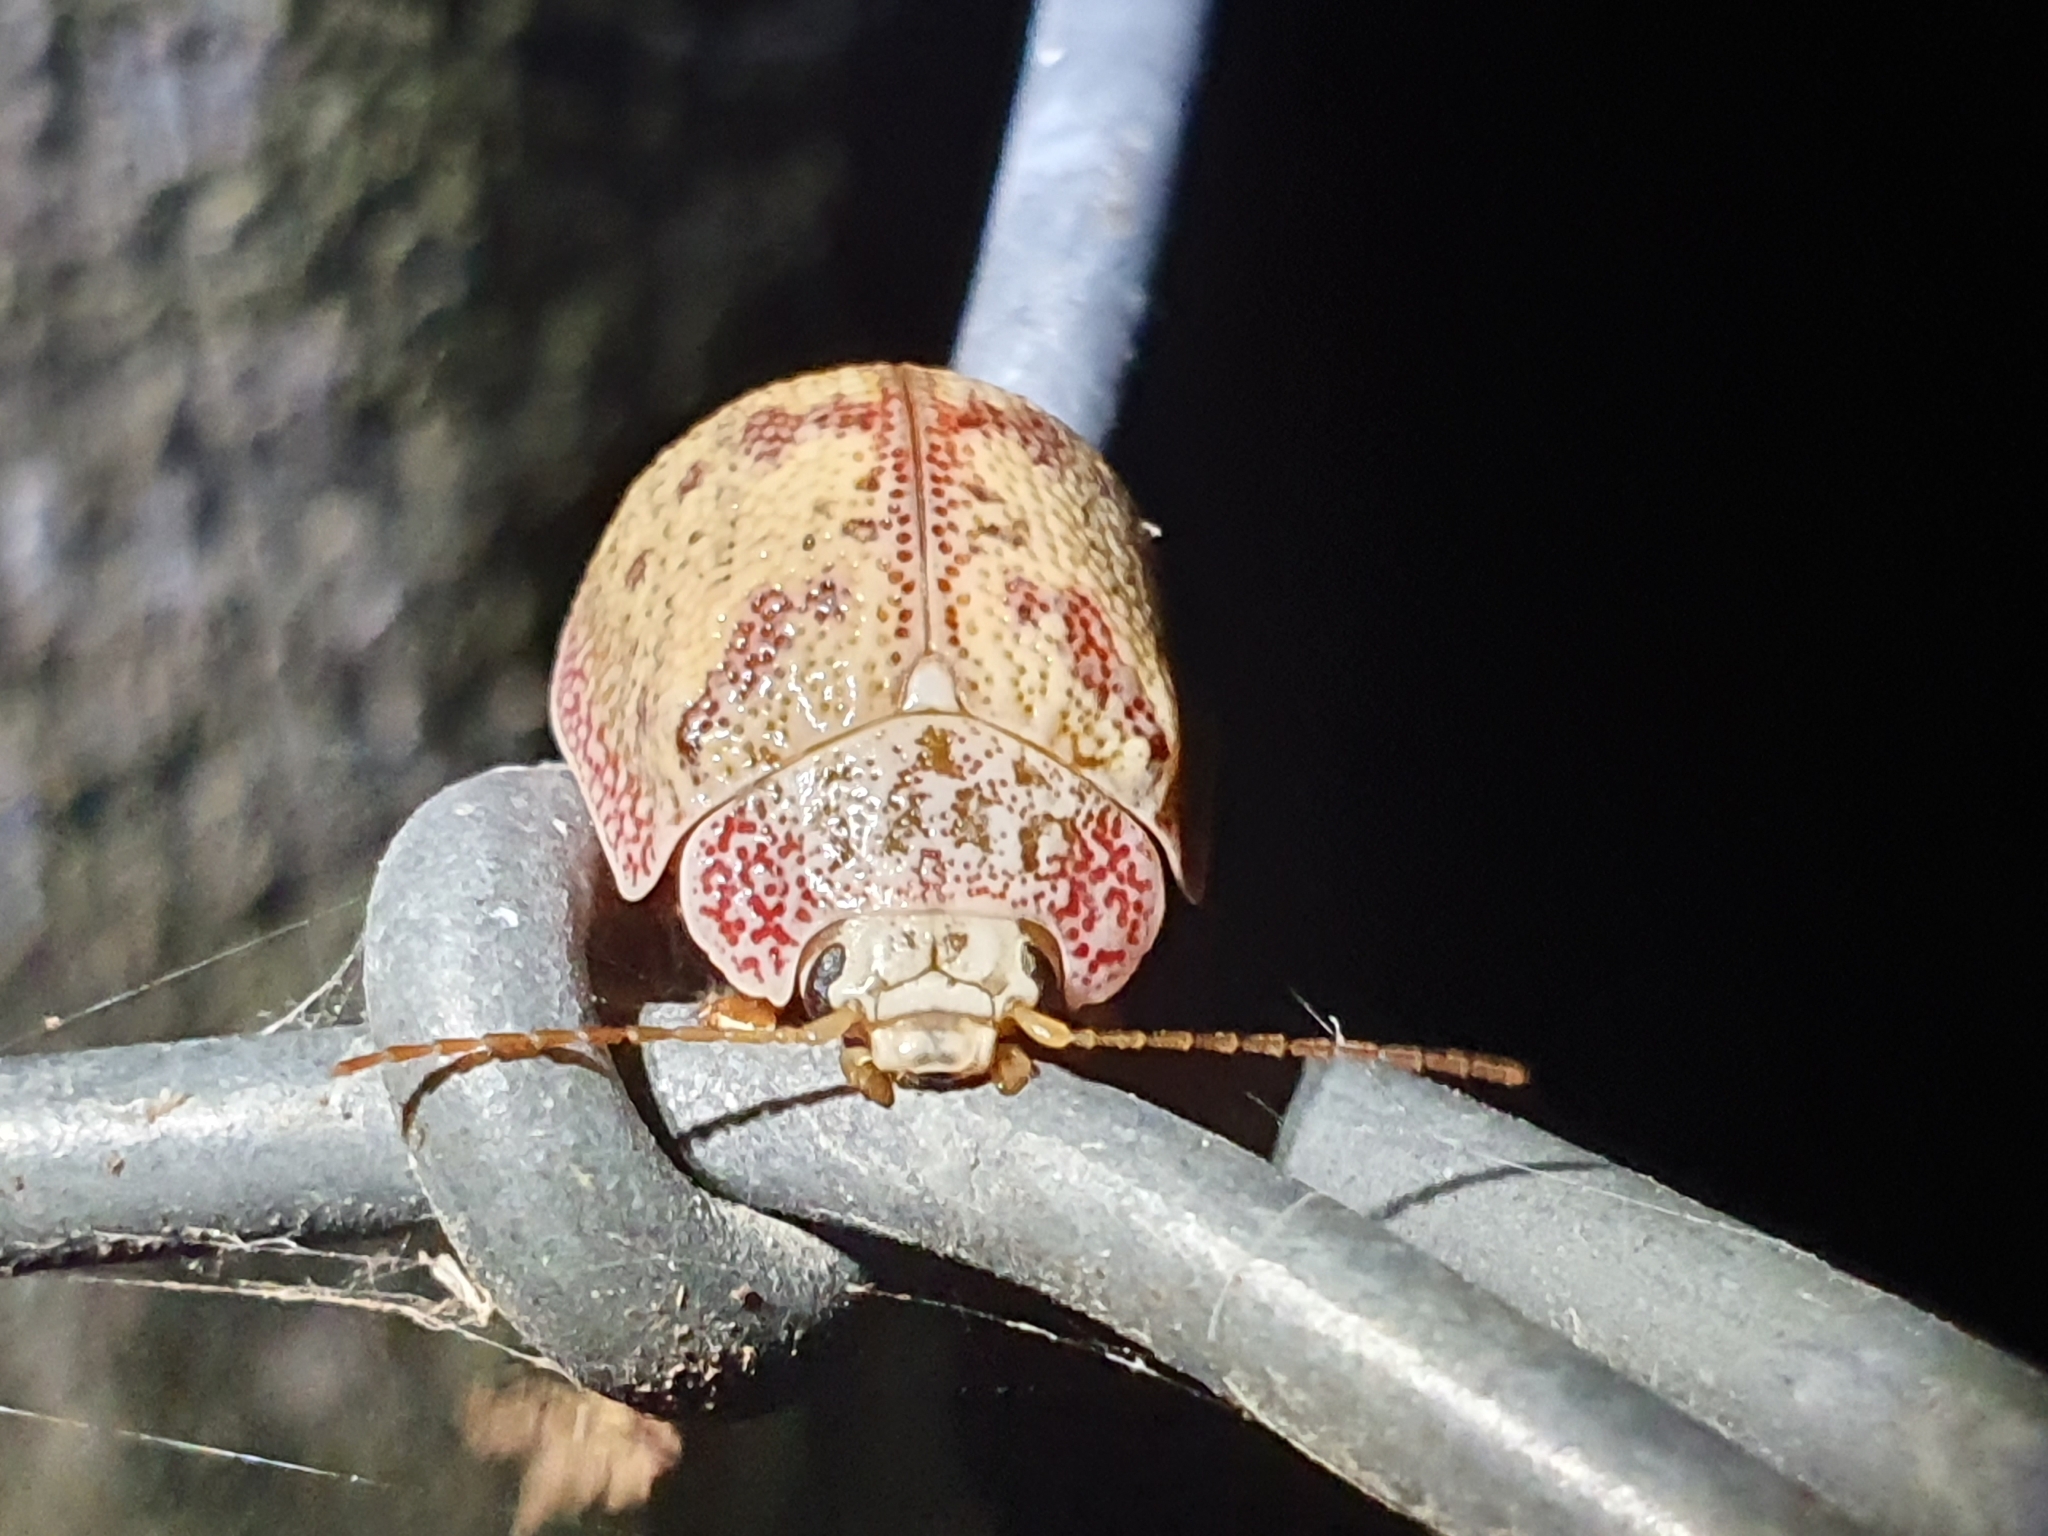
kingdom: Animalia
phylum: Arthropoda
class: Insecta
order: Coleoptera
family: Chrysomelidae
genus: Paropsis
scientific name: Paropsis charybdis
